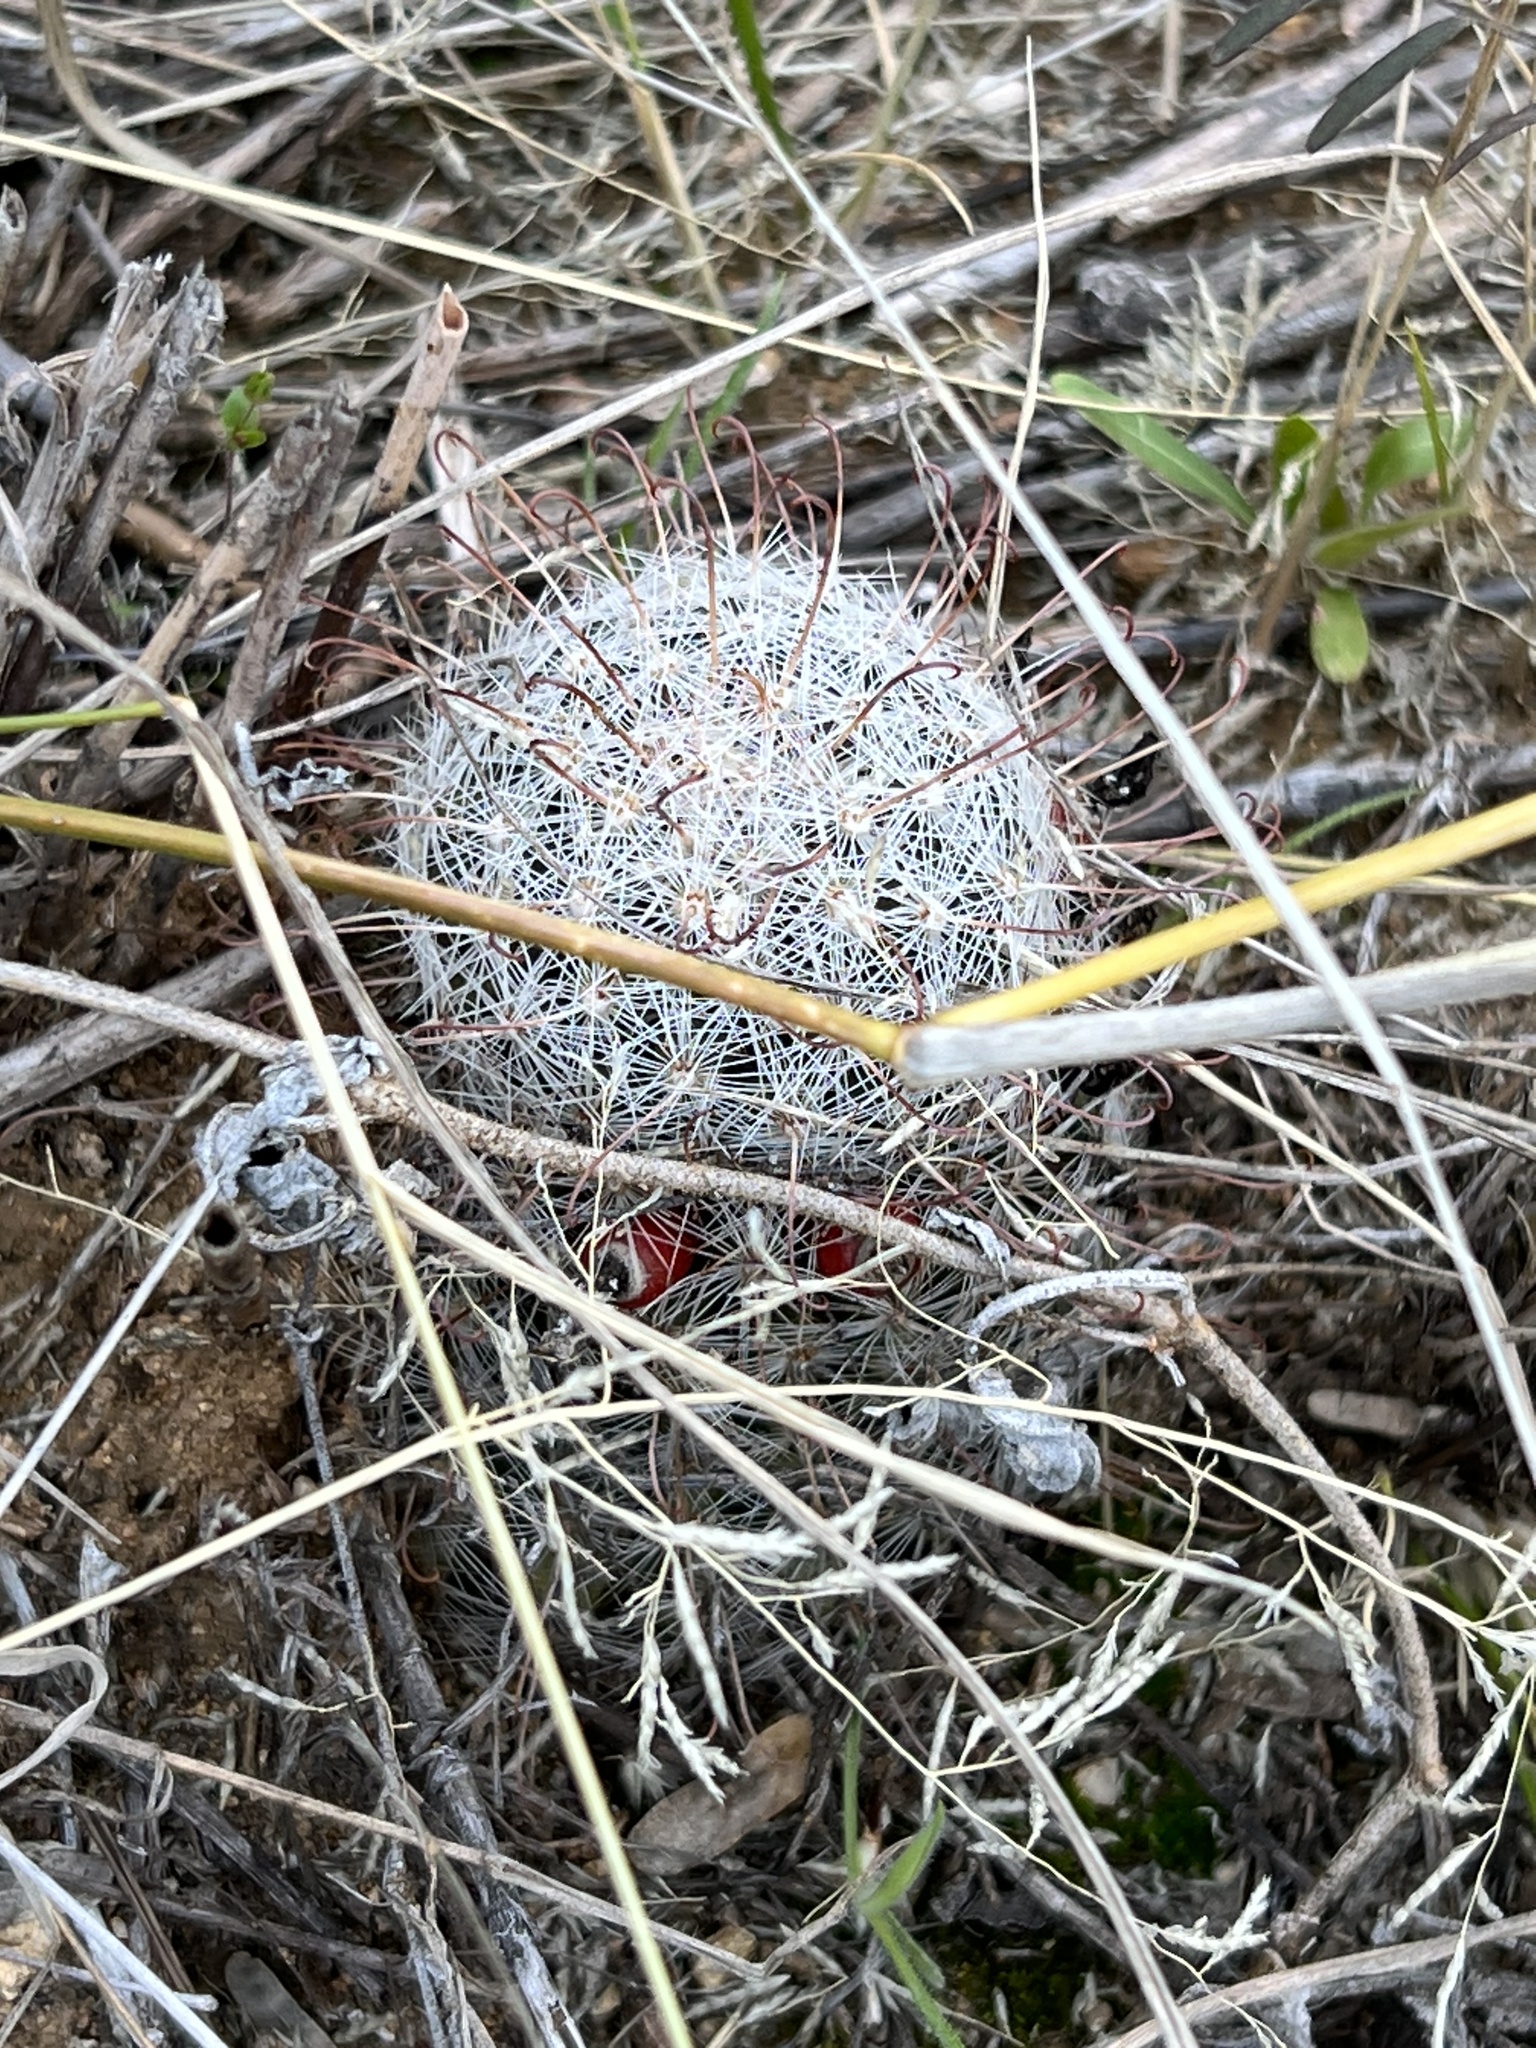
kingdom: Plantae
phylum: Tracheophyta
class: Magnoliopsida
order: Caryophyllales
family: Cactaceae
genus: Cochemiea
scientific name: Cochemiea grahamii
